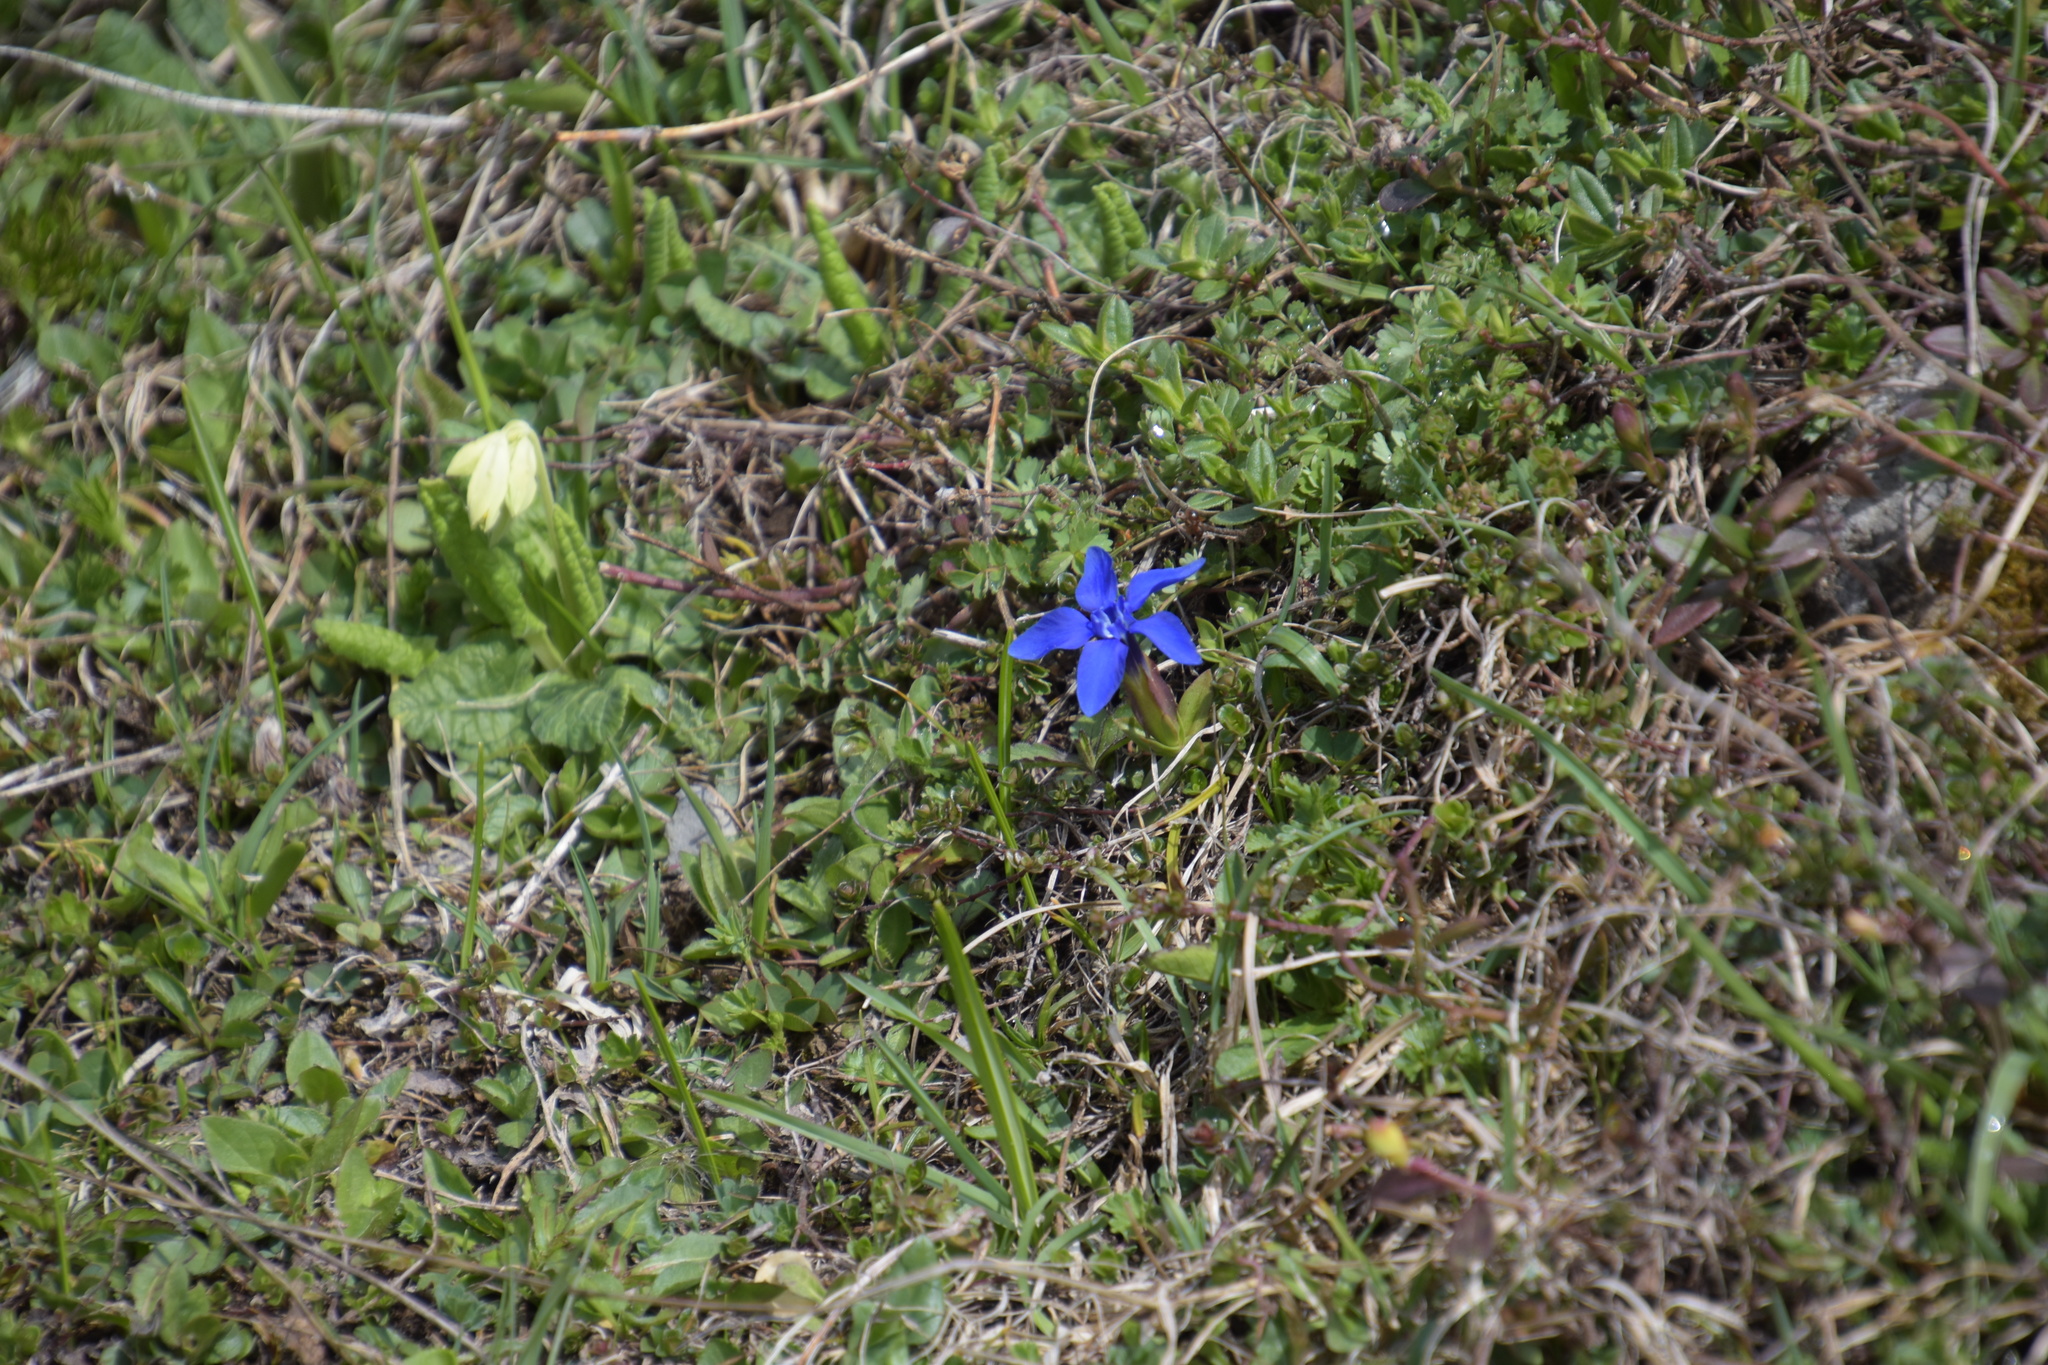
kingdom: Plantae
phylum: Tracheophyta
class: Magnoliopsida
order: Gentianales
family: Gentianaceae
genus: Gentiana
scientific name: Gentiana verna
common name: Spring gentian
